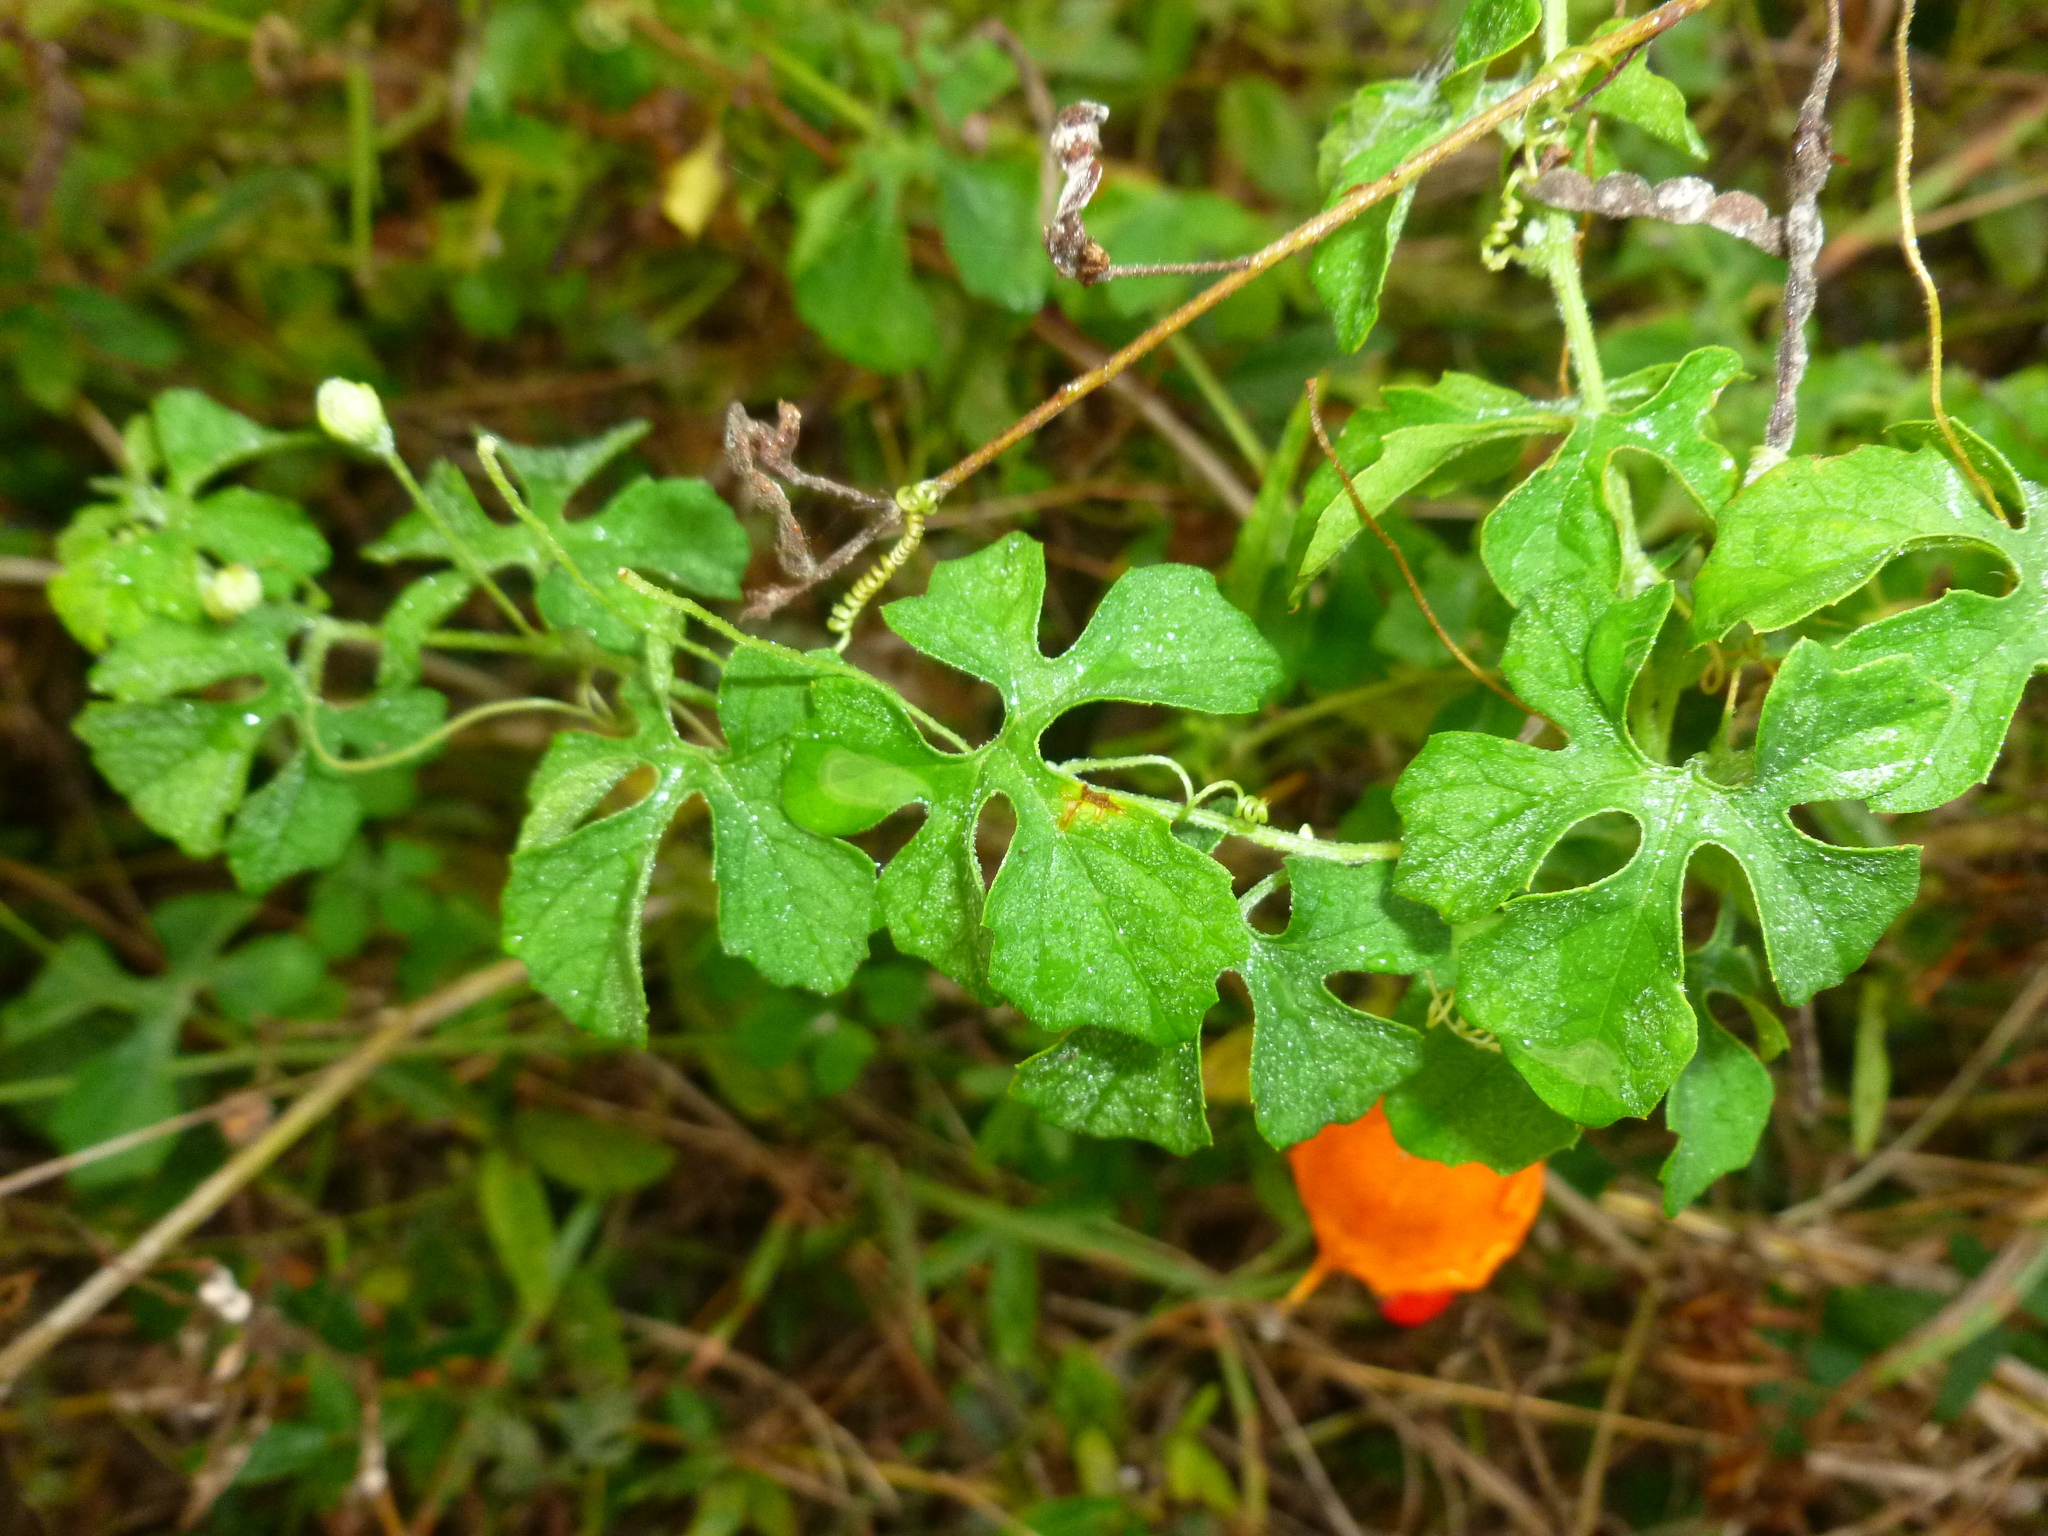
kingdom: Plantae
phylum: Tracheophyta
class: Magnoliopsida
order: Cucurbitales
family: Cucurbitaceae
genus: Momordica
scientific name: Momordica charantia
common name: Balsampear
